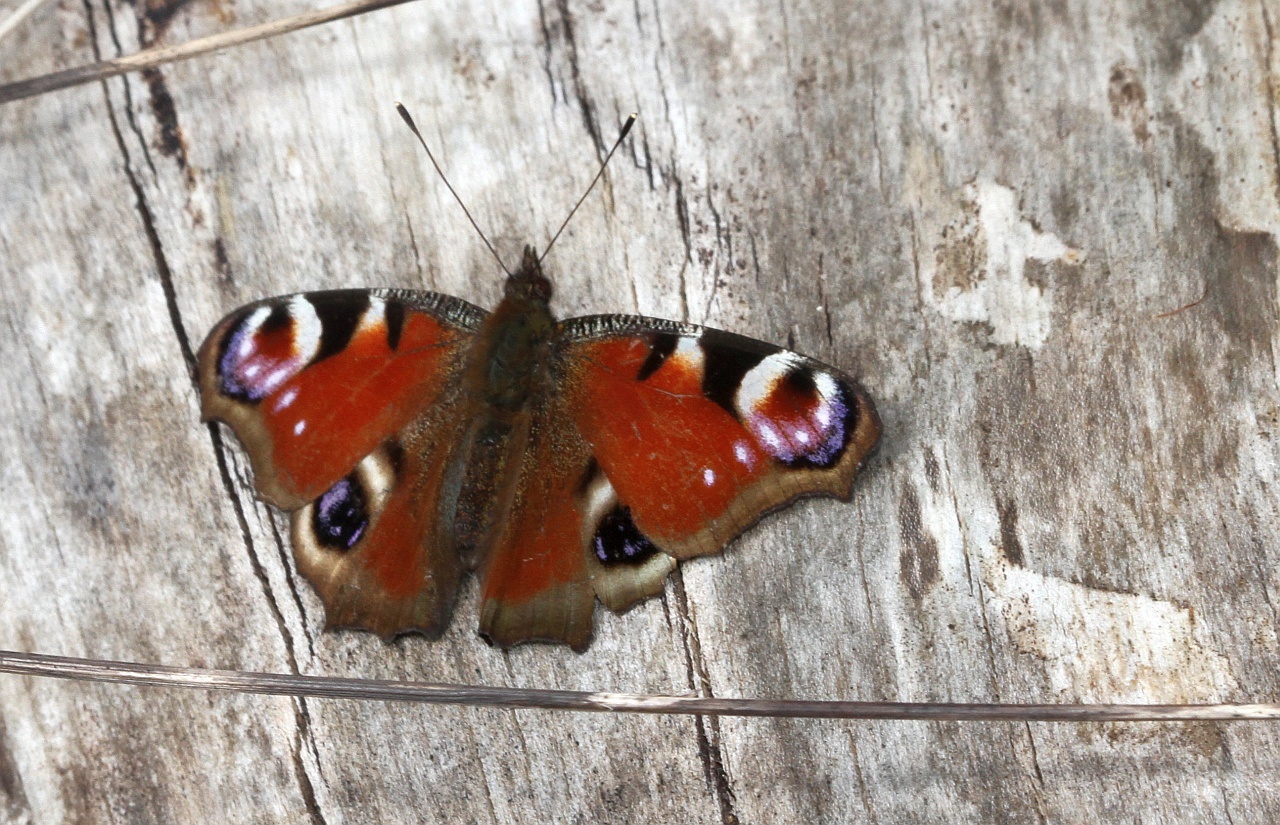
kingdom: Animalia
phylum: Arthropoda
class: Insecta
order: Lepidoptera
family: Nymphalidae
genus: Aglais
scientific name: Aglais io
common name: Peacock
